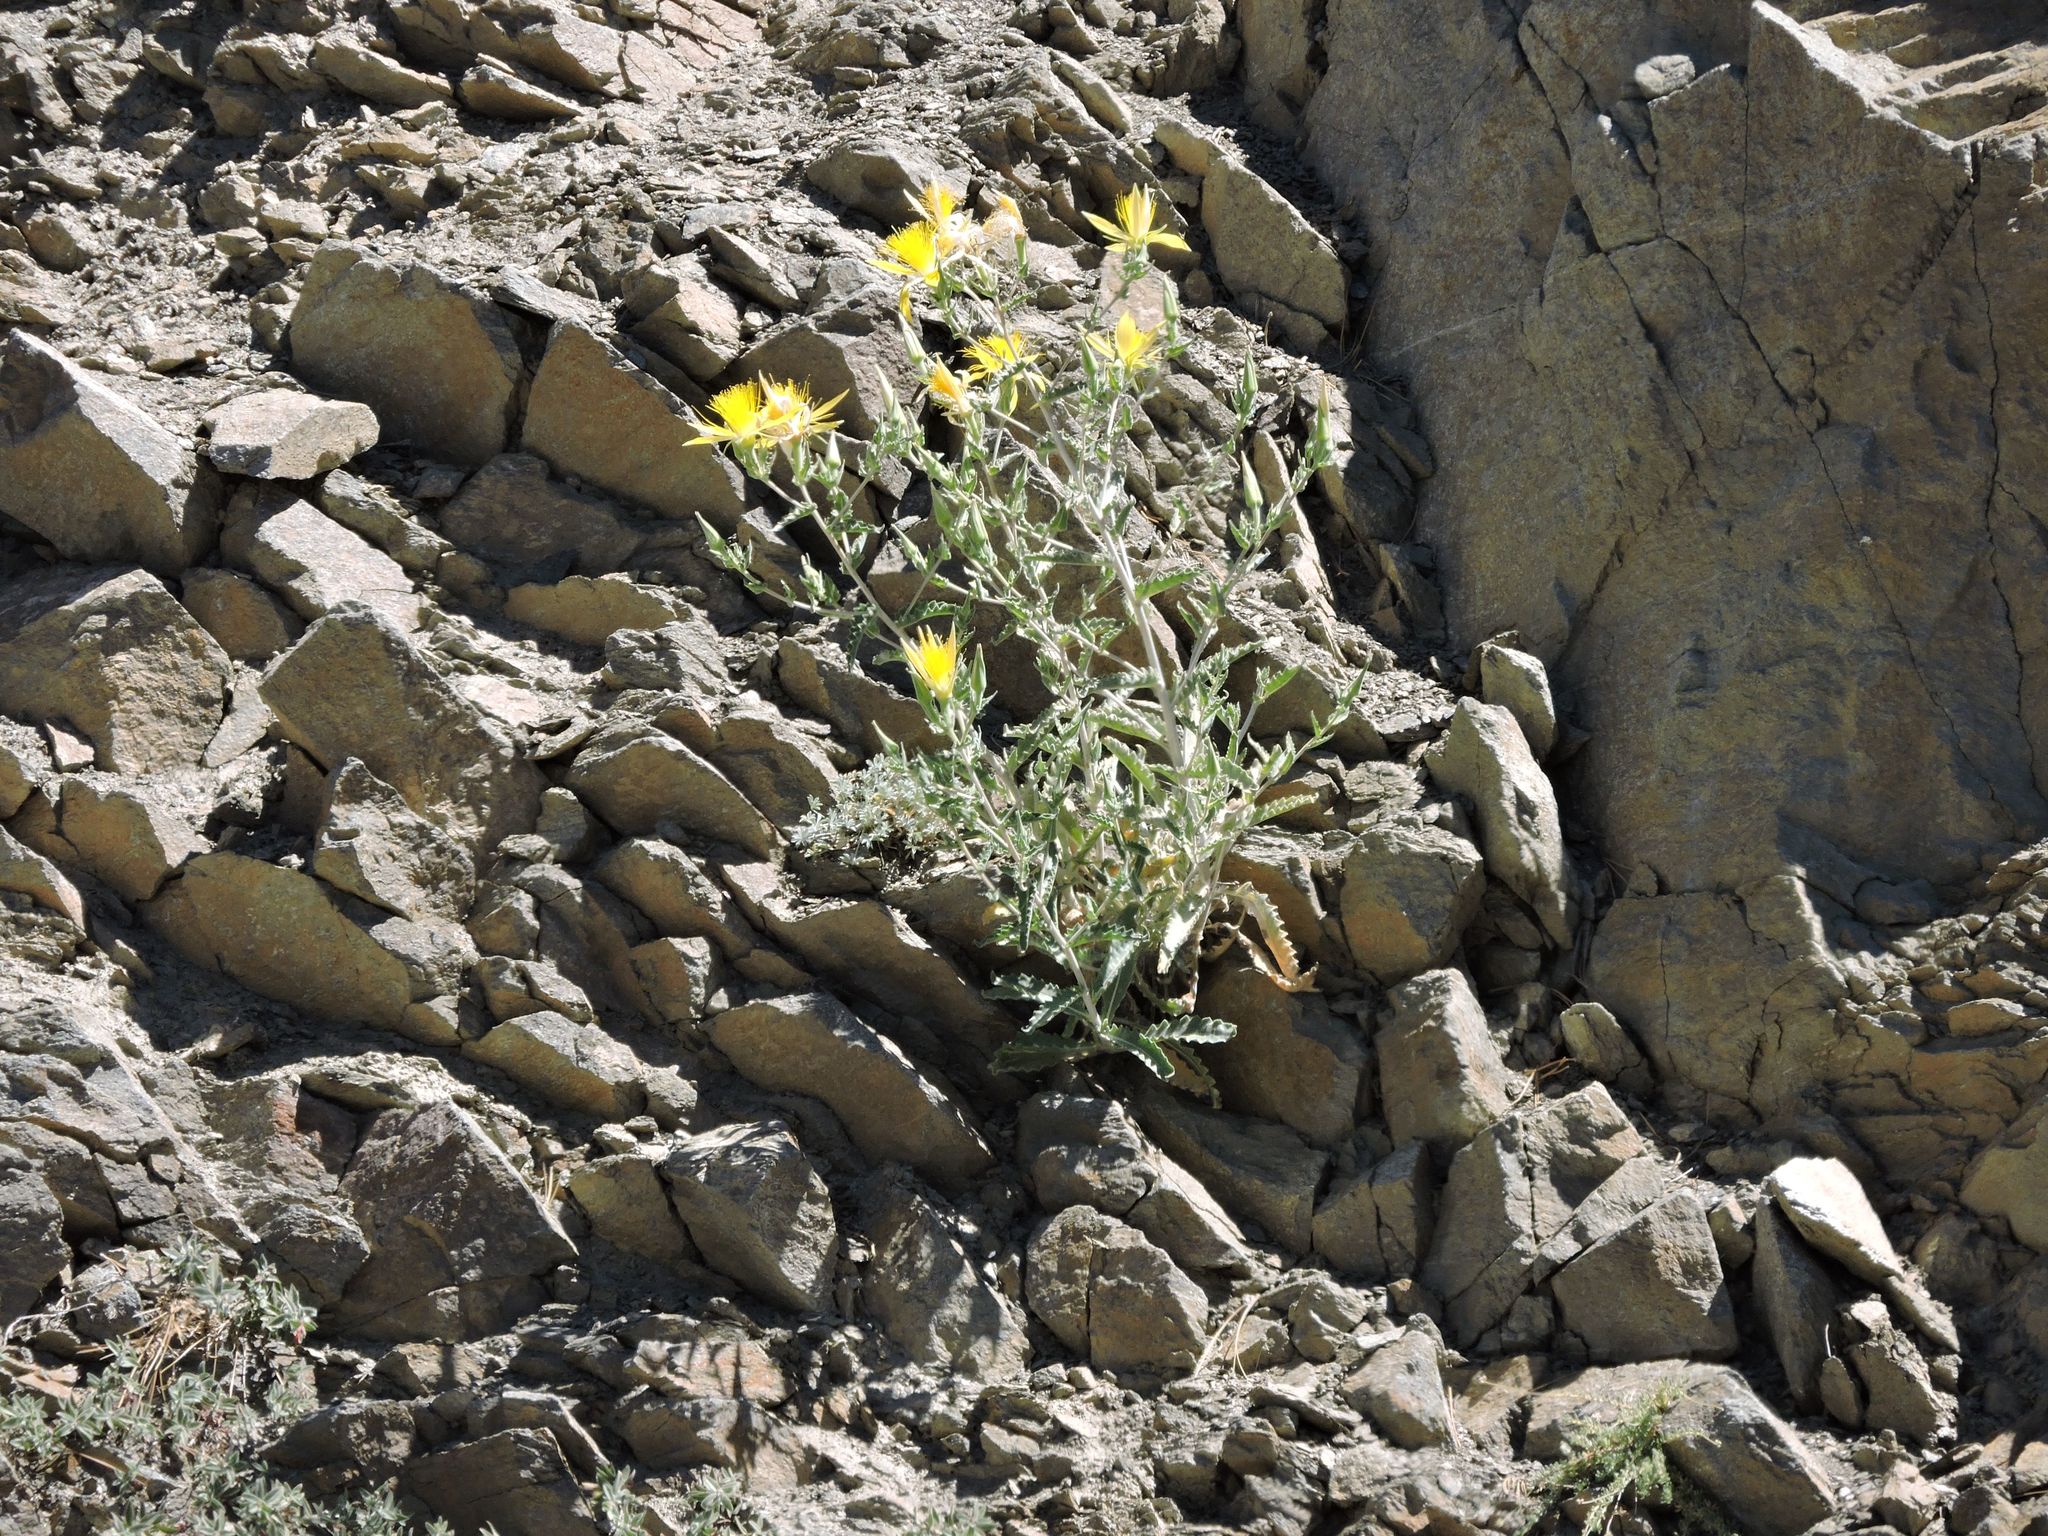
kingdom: Plantae
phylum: Tracheophyta
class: Magnoliopsida
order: Cornales
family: Loasaceae
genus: Mentzelia
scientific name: Mentzelia laevicaulis
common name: Smooth-stem blazingstar
